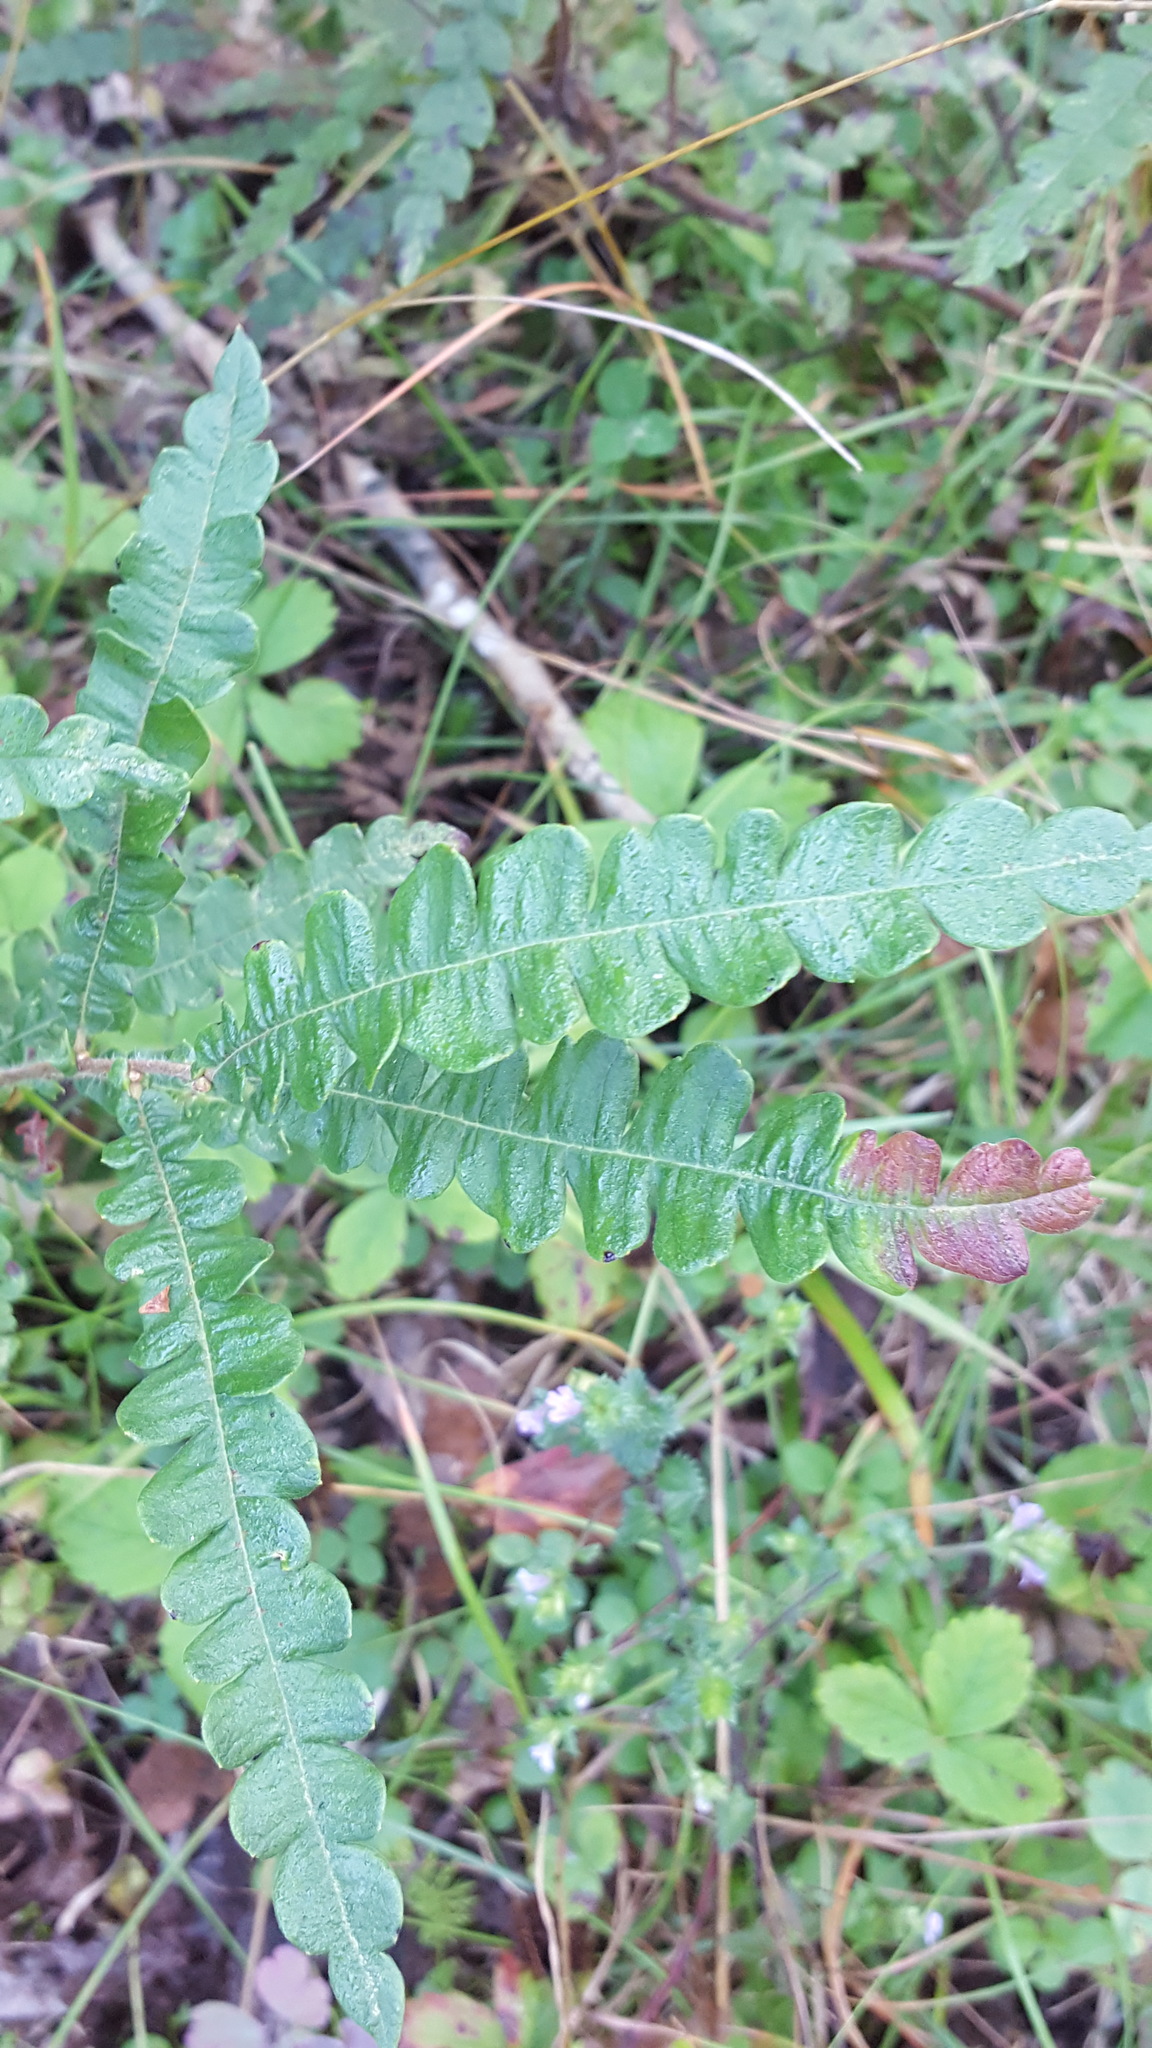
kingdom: Plantae
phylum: Tracheophyta
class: Magnoliopsida
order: Fagales
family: Myricaceae
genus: Comptonia
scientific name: Comptonia peregrina
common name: Sweet-fern
